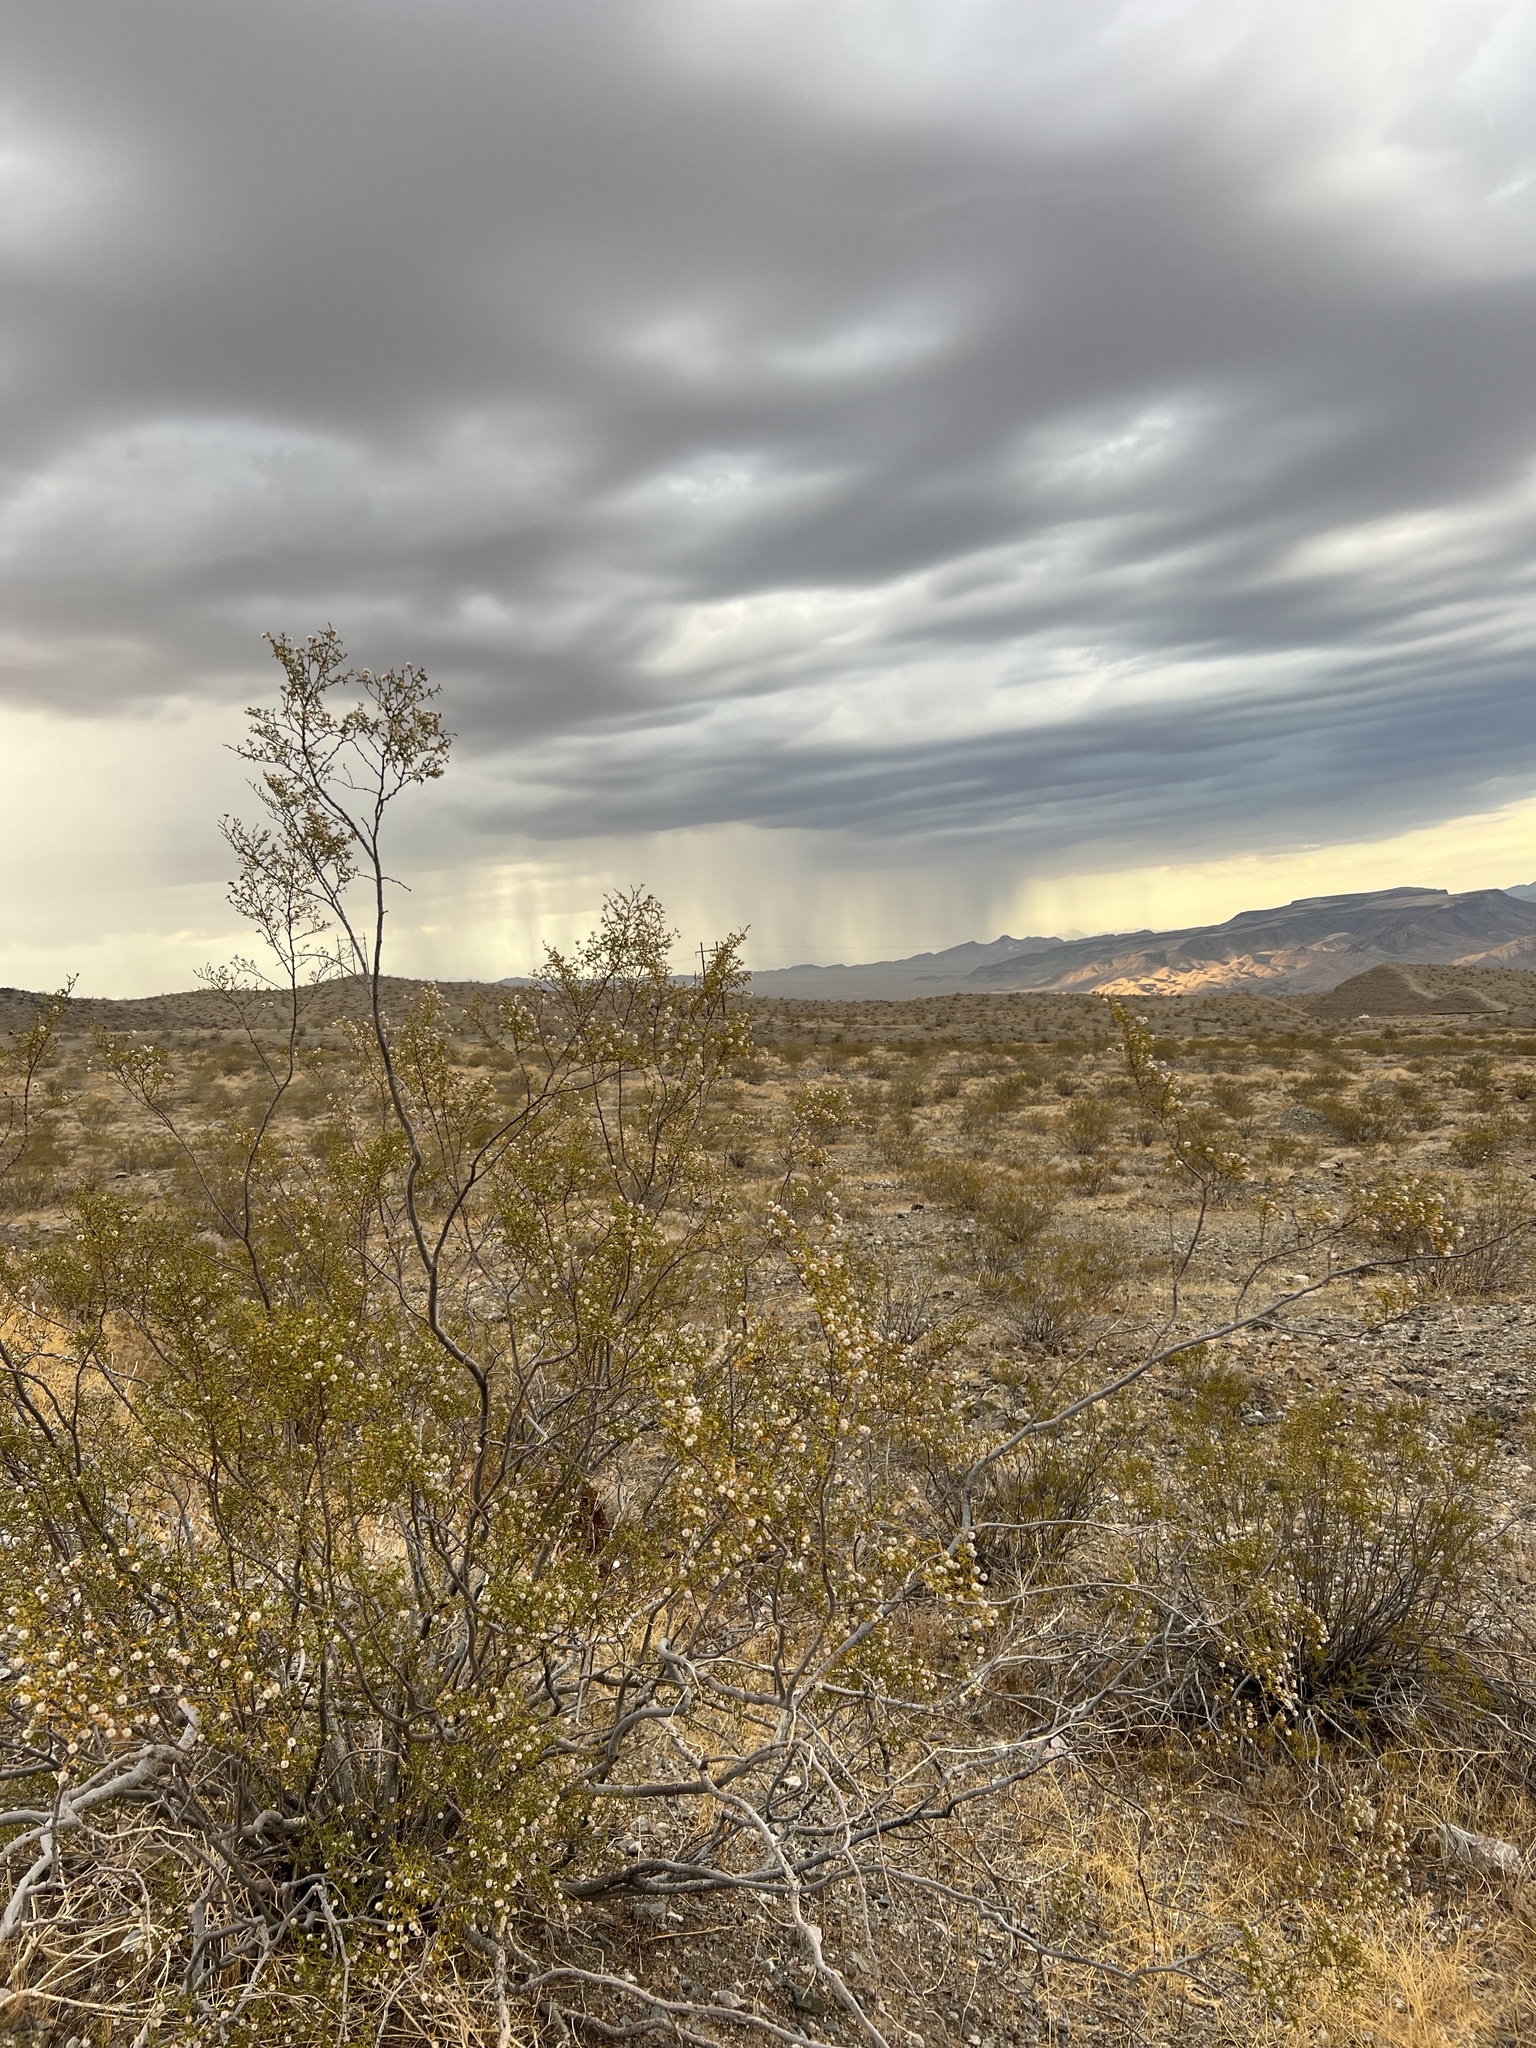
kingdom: Plantae
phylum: Tracheophyta
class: Magnoliopsida
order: Zygophyllales
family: Zygophyllaceae
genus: Larrea
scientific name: Larrea tridentata
